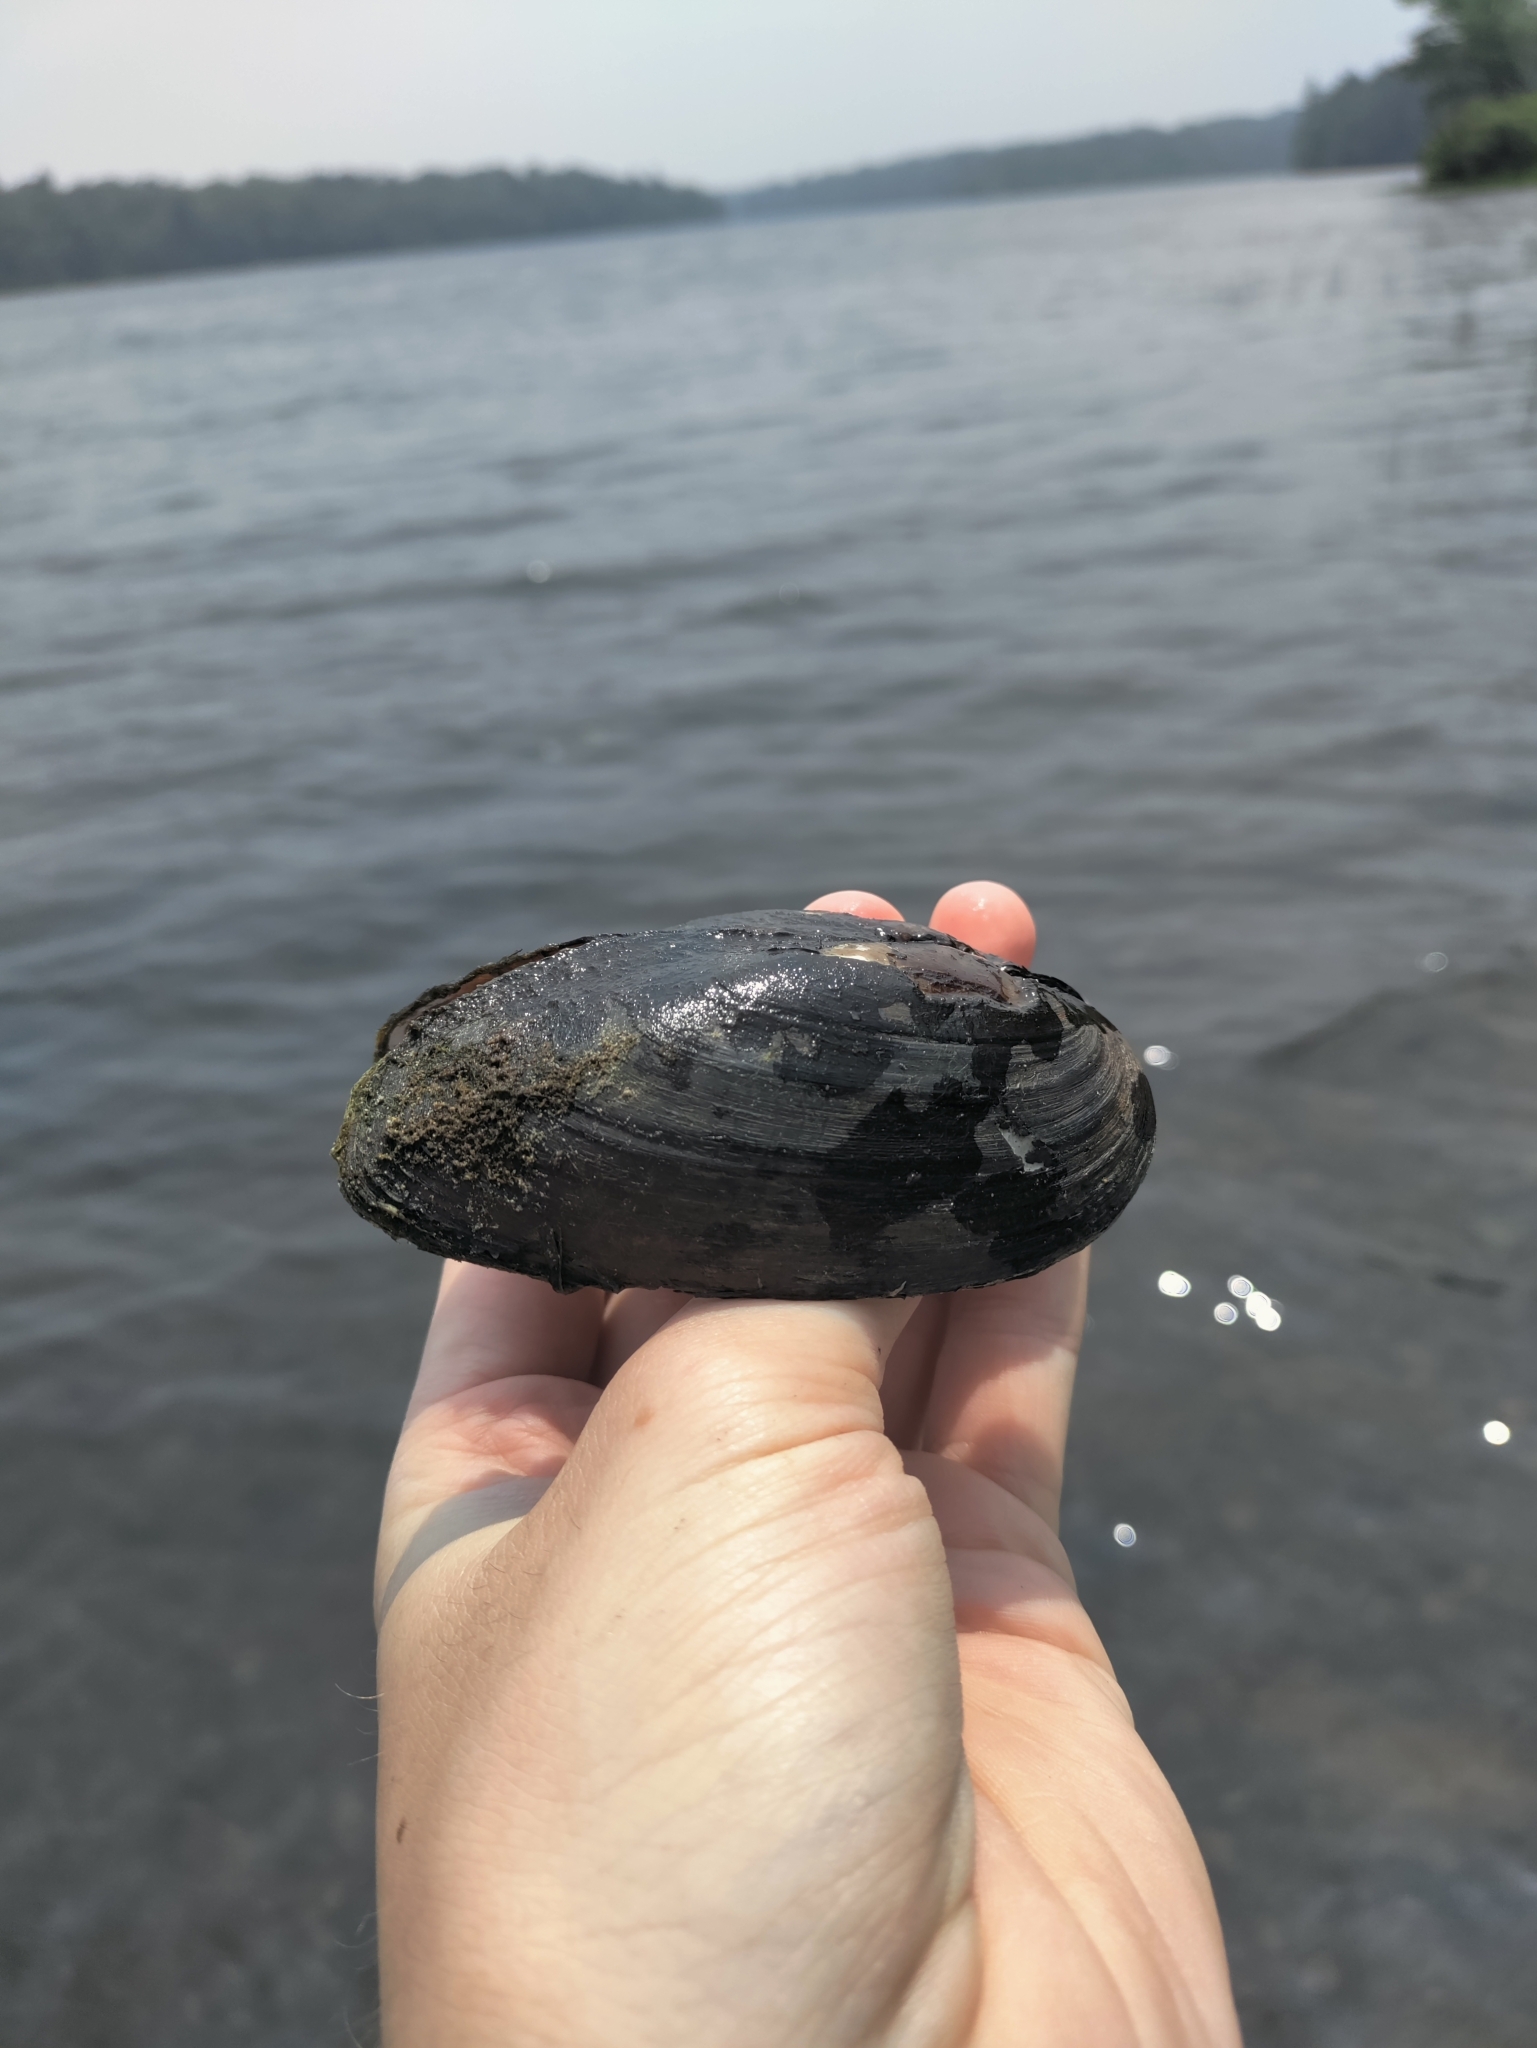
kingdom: Animalia
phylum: Mollusca
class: Bivalvia
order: Unionida
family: Unionidae
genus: Elliptio
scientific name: Elliptio complanata
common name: Eastern elliptio
